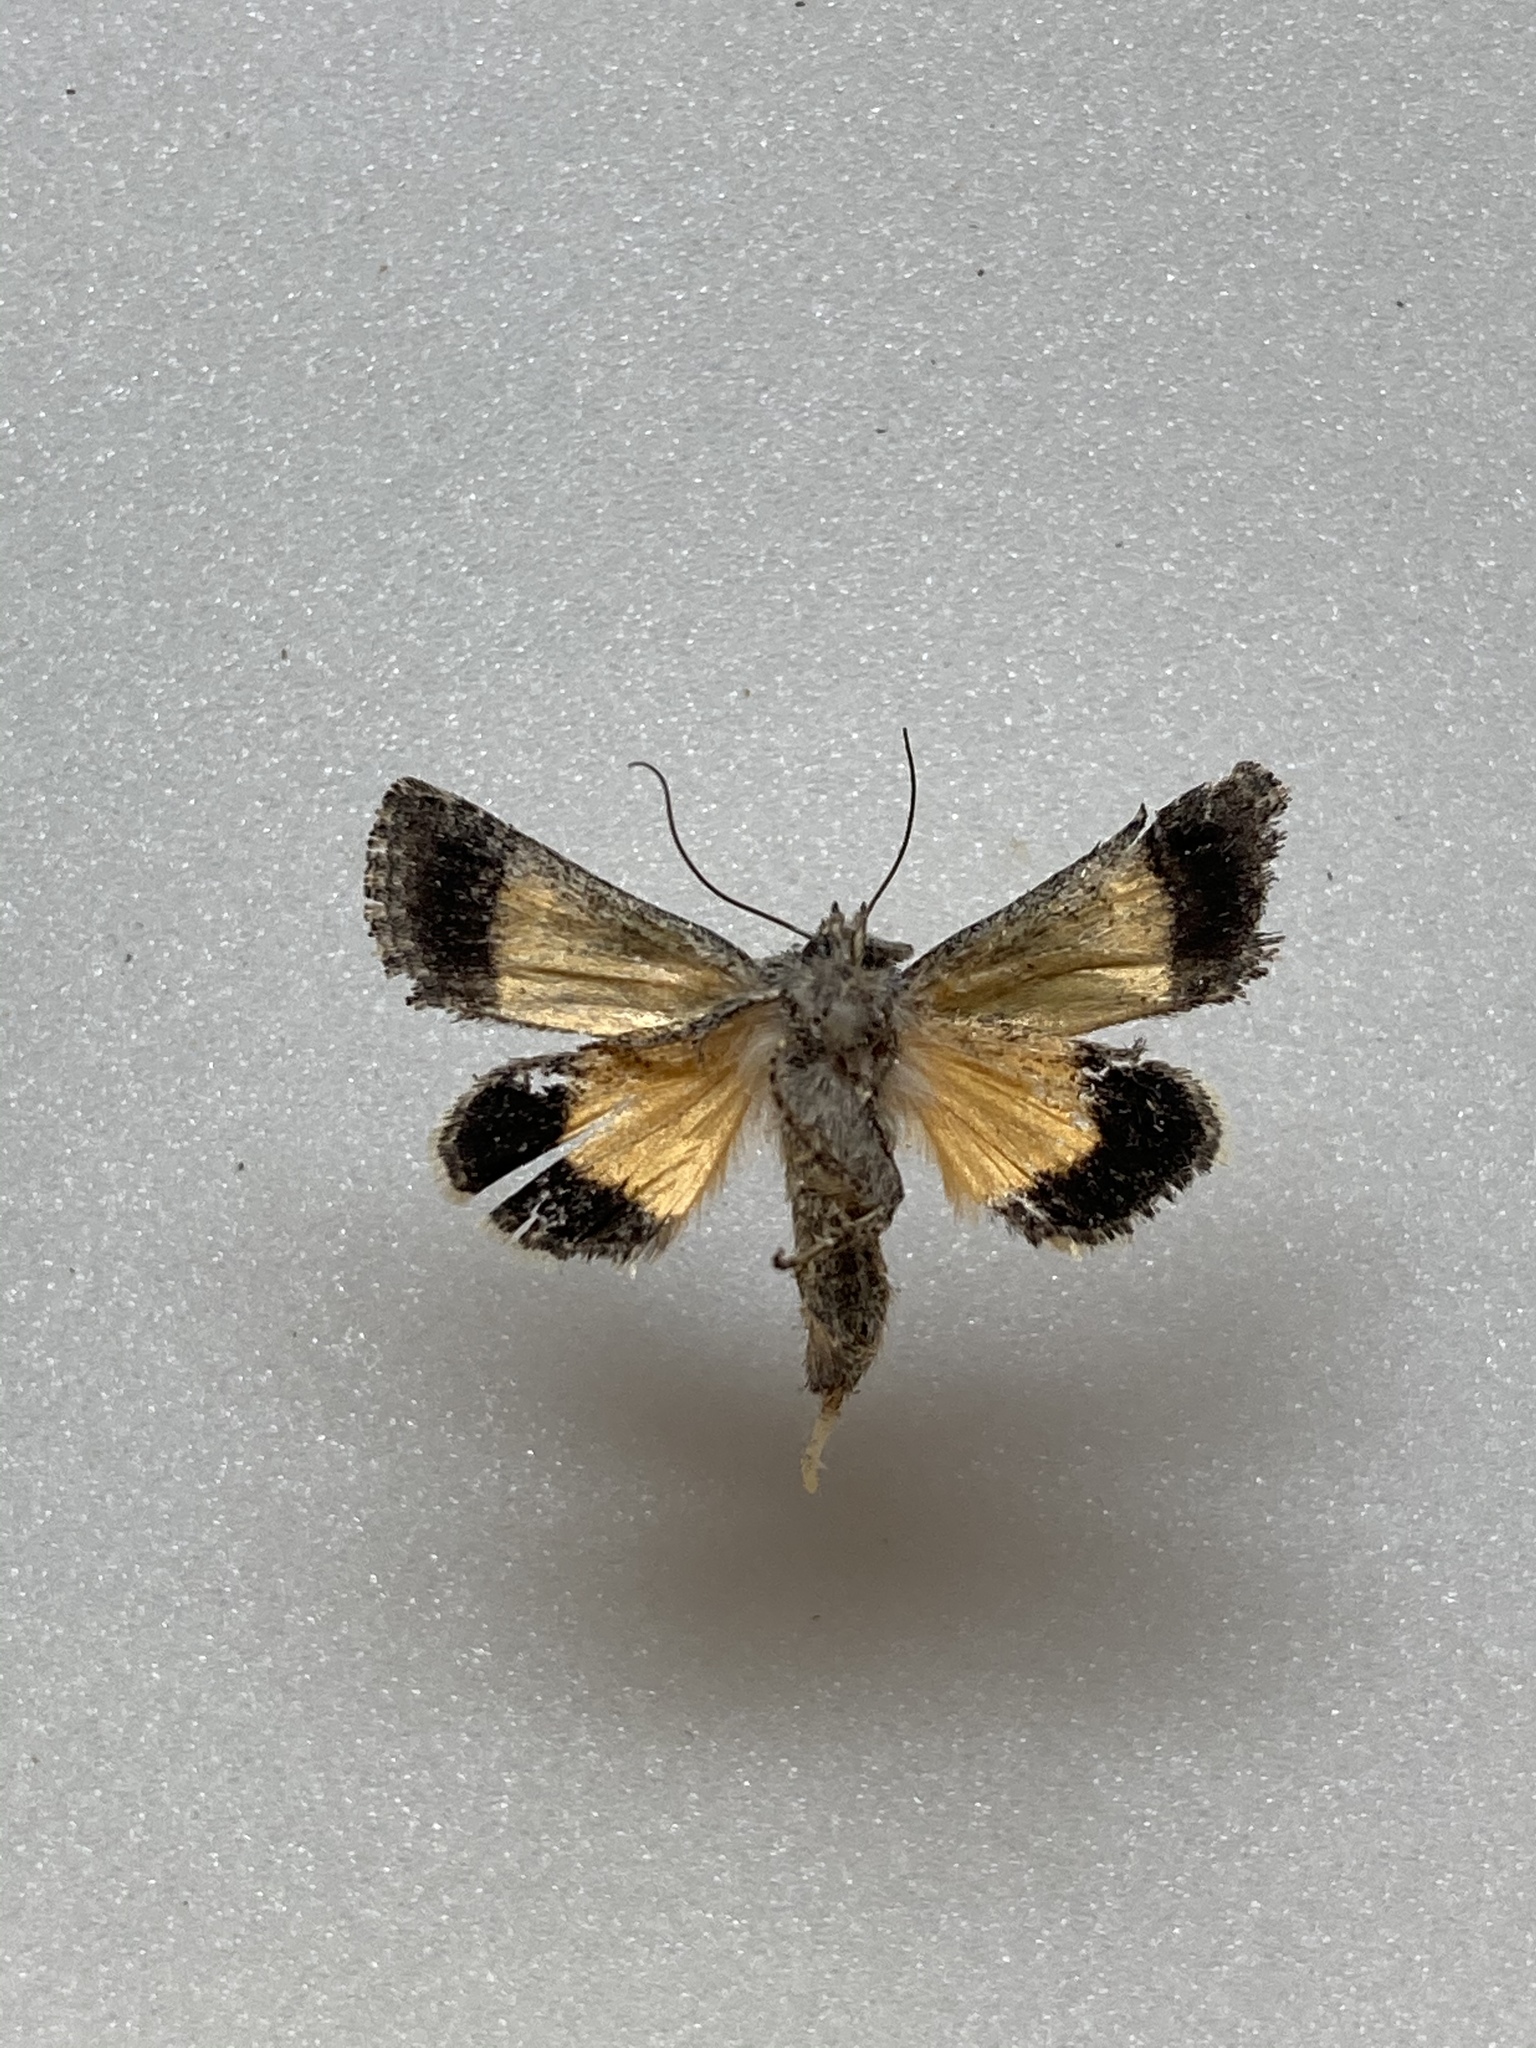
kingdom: Animalia
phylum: Arthropoda
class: Insecta
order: Lepidoptera
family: Noctuidae
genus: Pseudanarta
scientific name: Pseudanarta crocea
